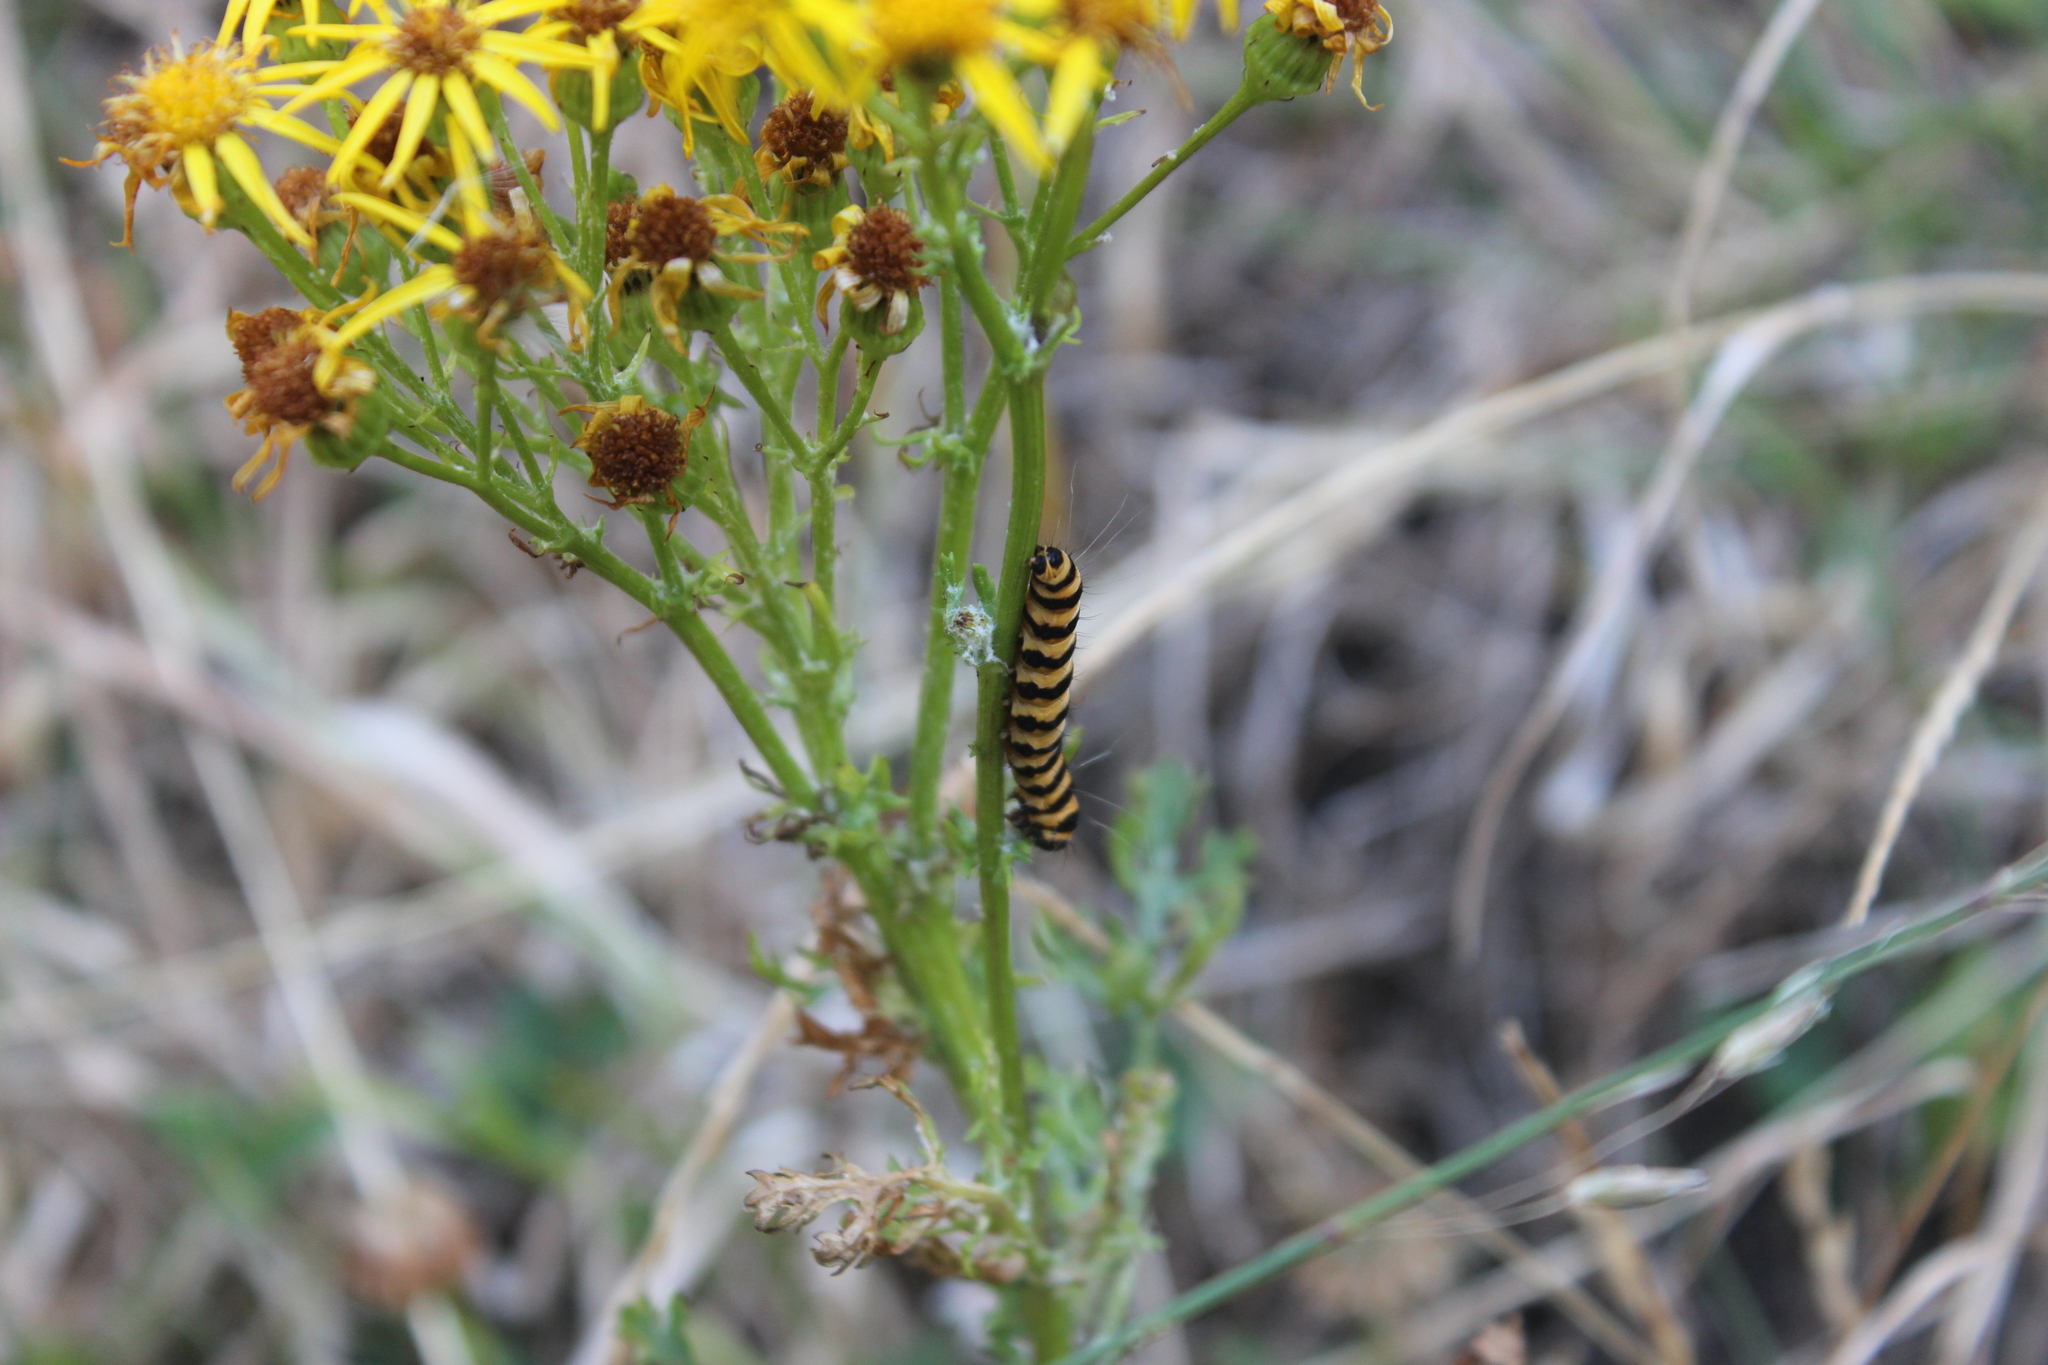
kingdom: Animalia
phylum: Arthropoda
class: Insecta
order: Lepidoptera
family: Erebidae
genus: Tyria
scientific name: Tyria jacobaeae
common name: Cinnabar
